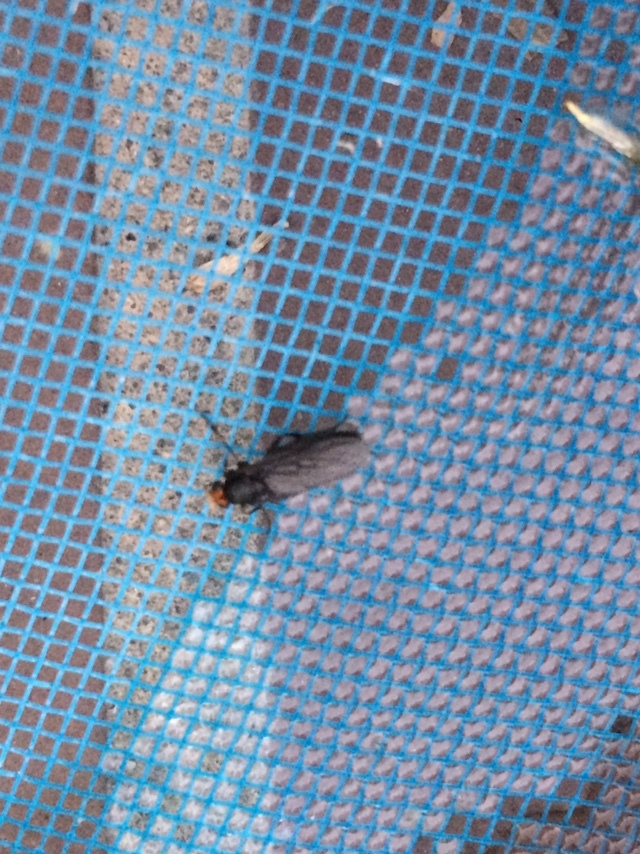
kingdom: Animalia
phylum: Arthropoda
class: Insecta
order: Diptera
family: Stratiomyidae
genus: Inopus
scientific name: Inopus rubriceps
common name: Soldier fly
